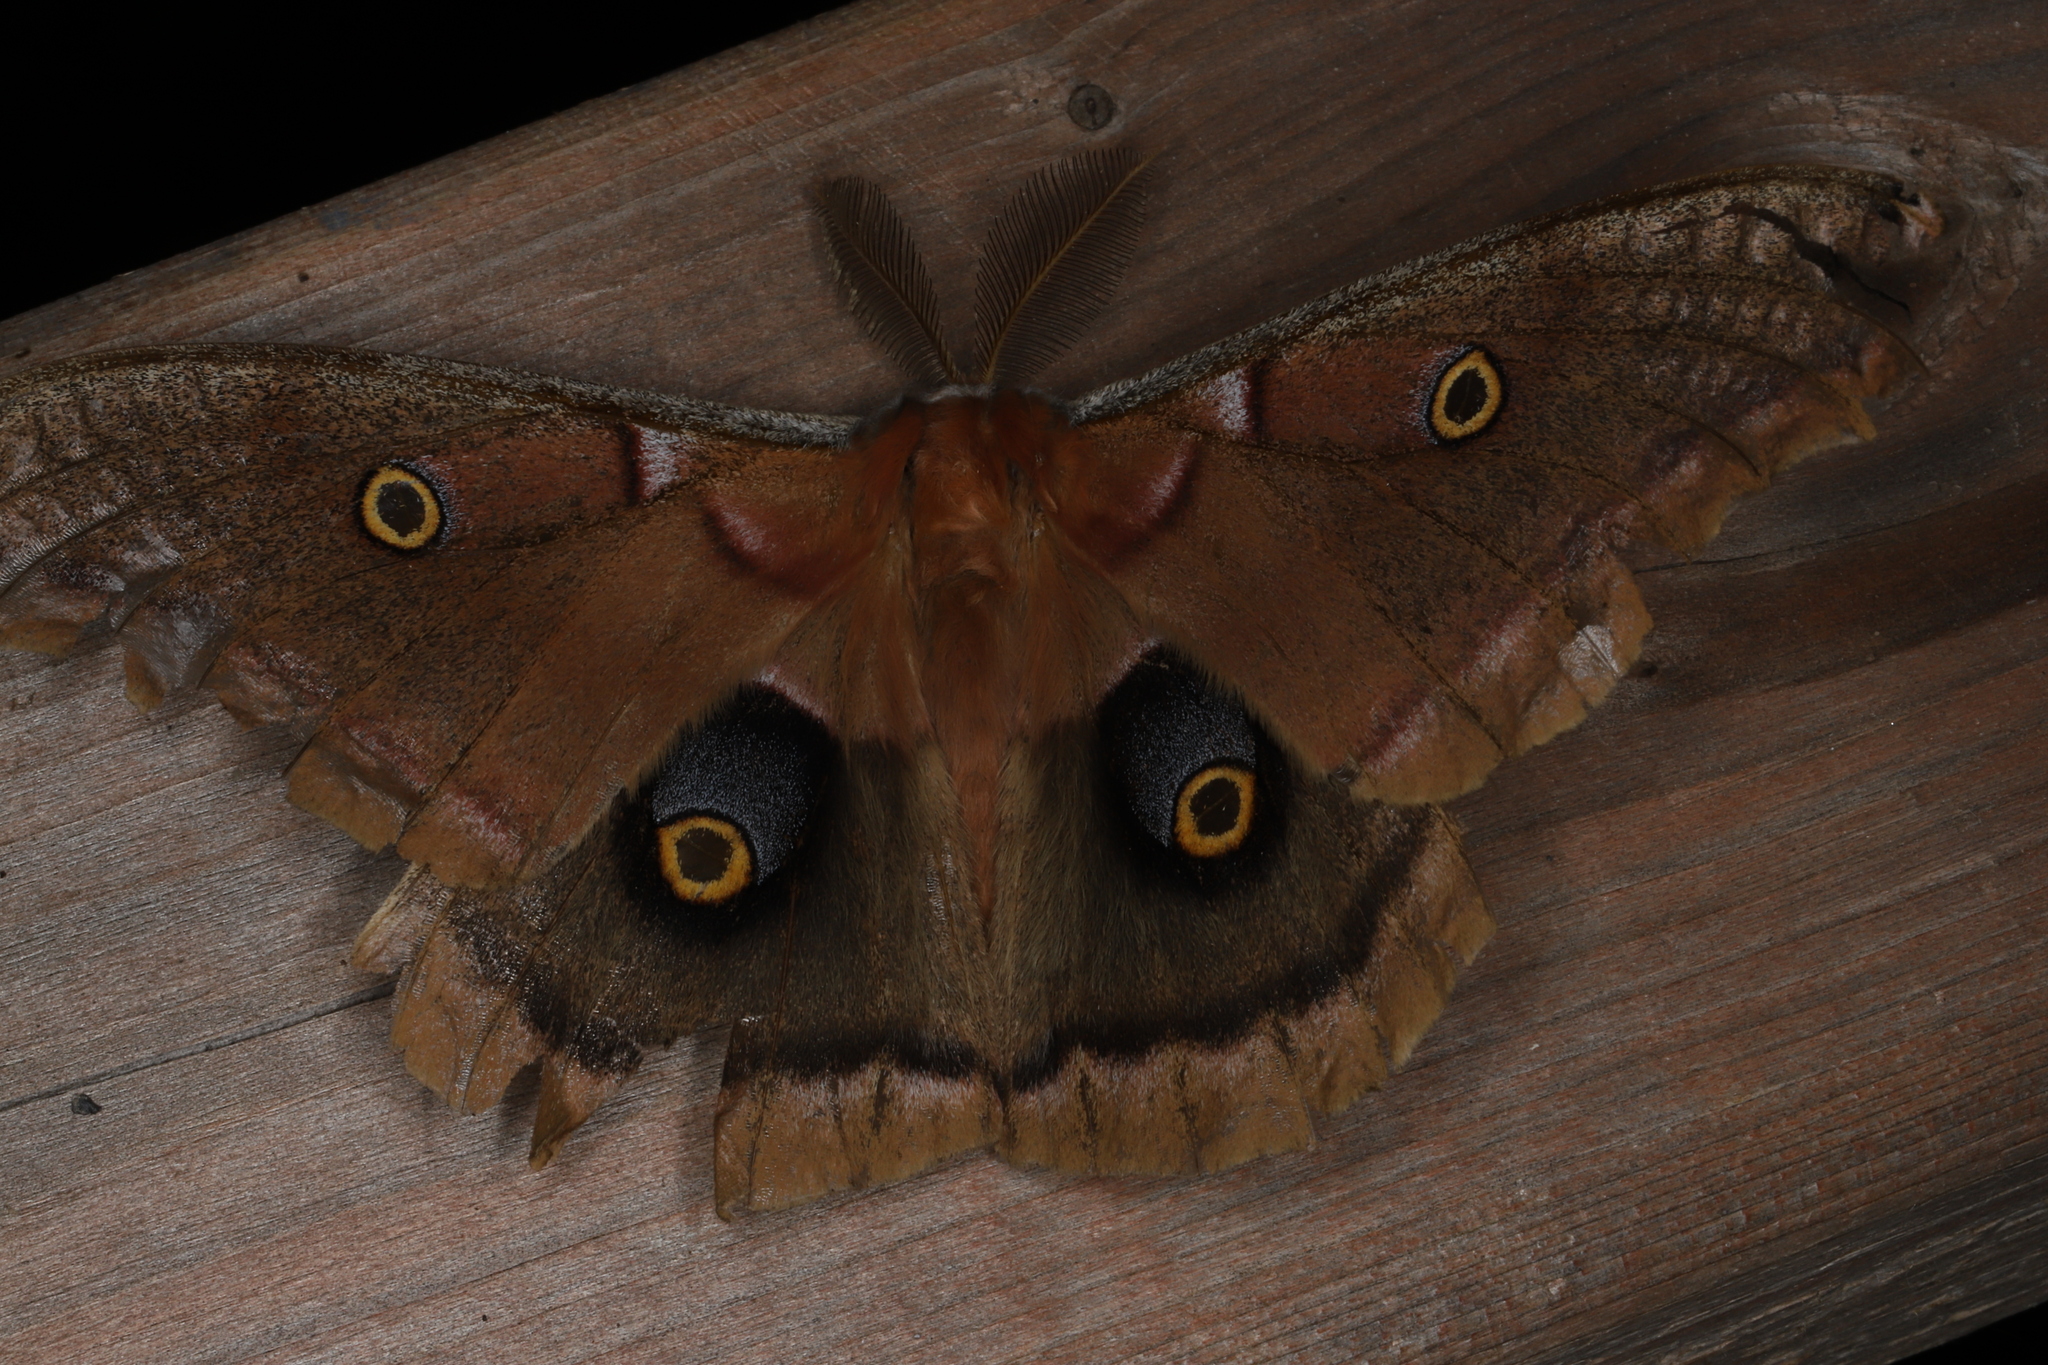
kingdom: Animalia
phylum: Arthropoda
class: Insecta
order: Lepidoptera
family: Saturniidae
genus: Antheraea
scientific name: Antheraea polyphemus
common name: Polyphemus moth
